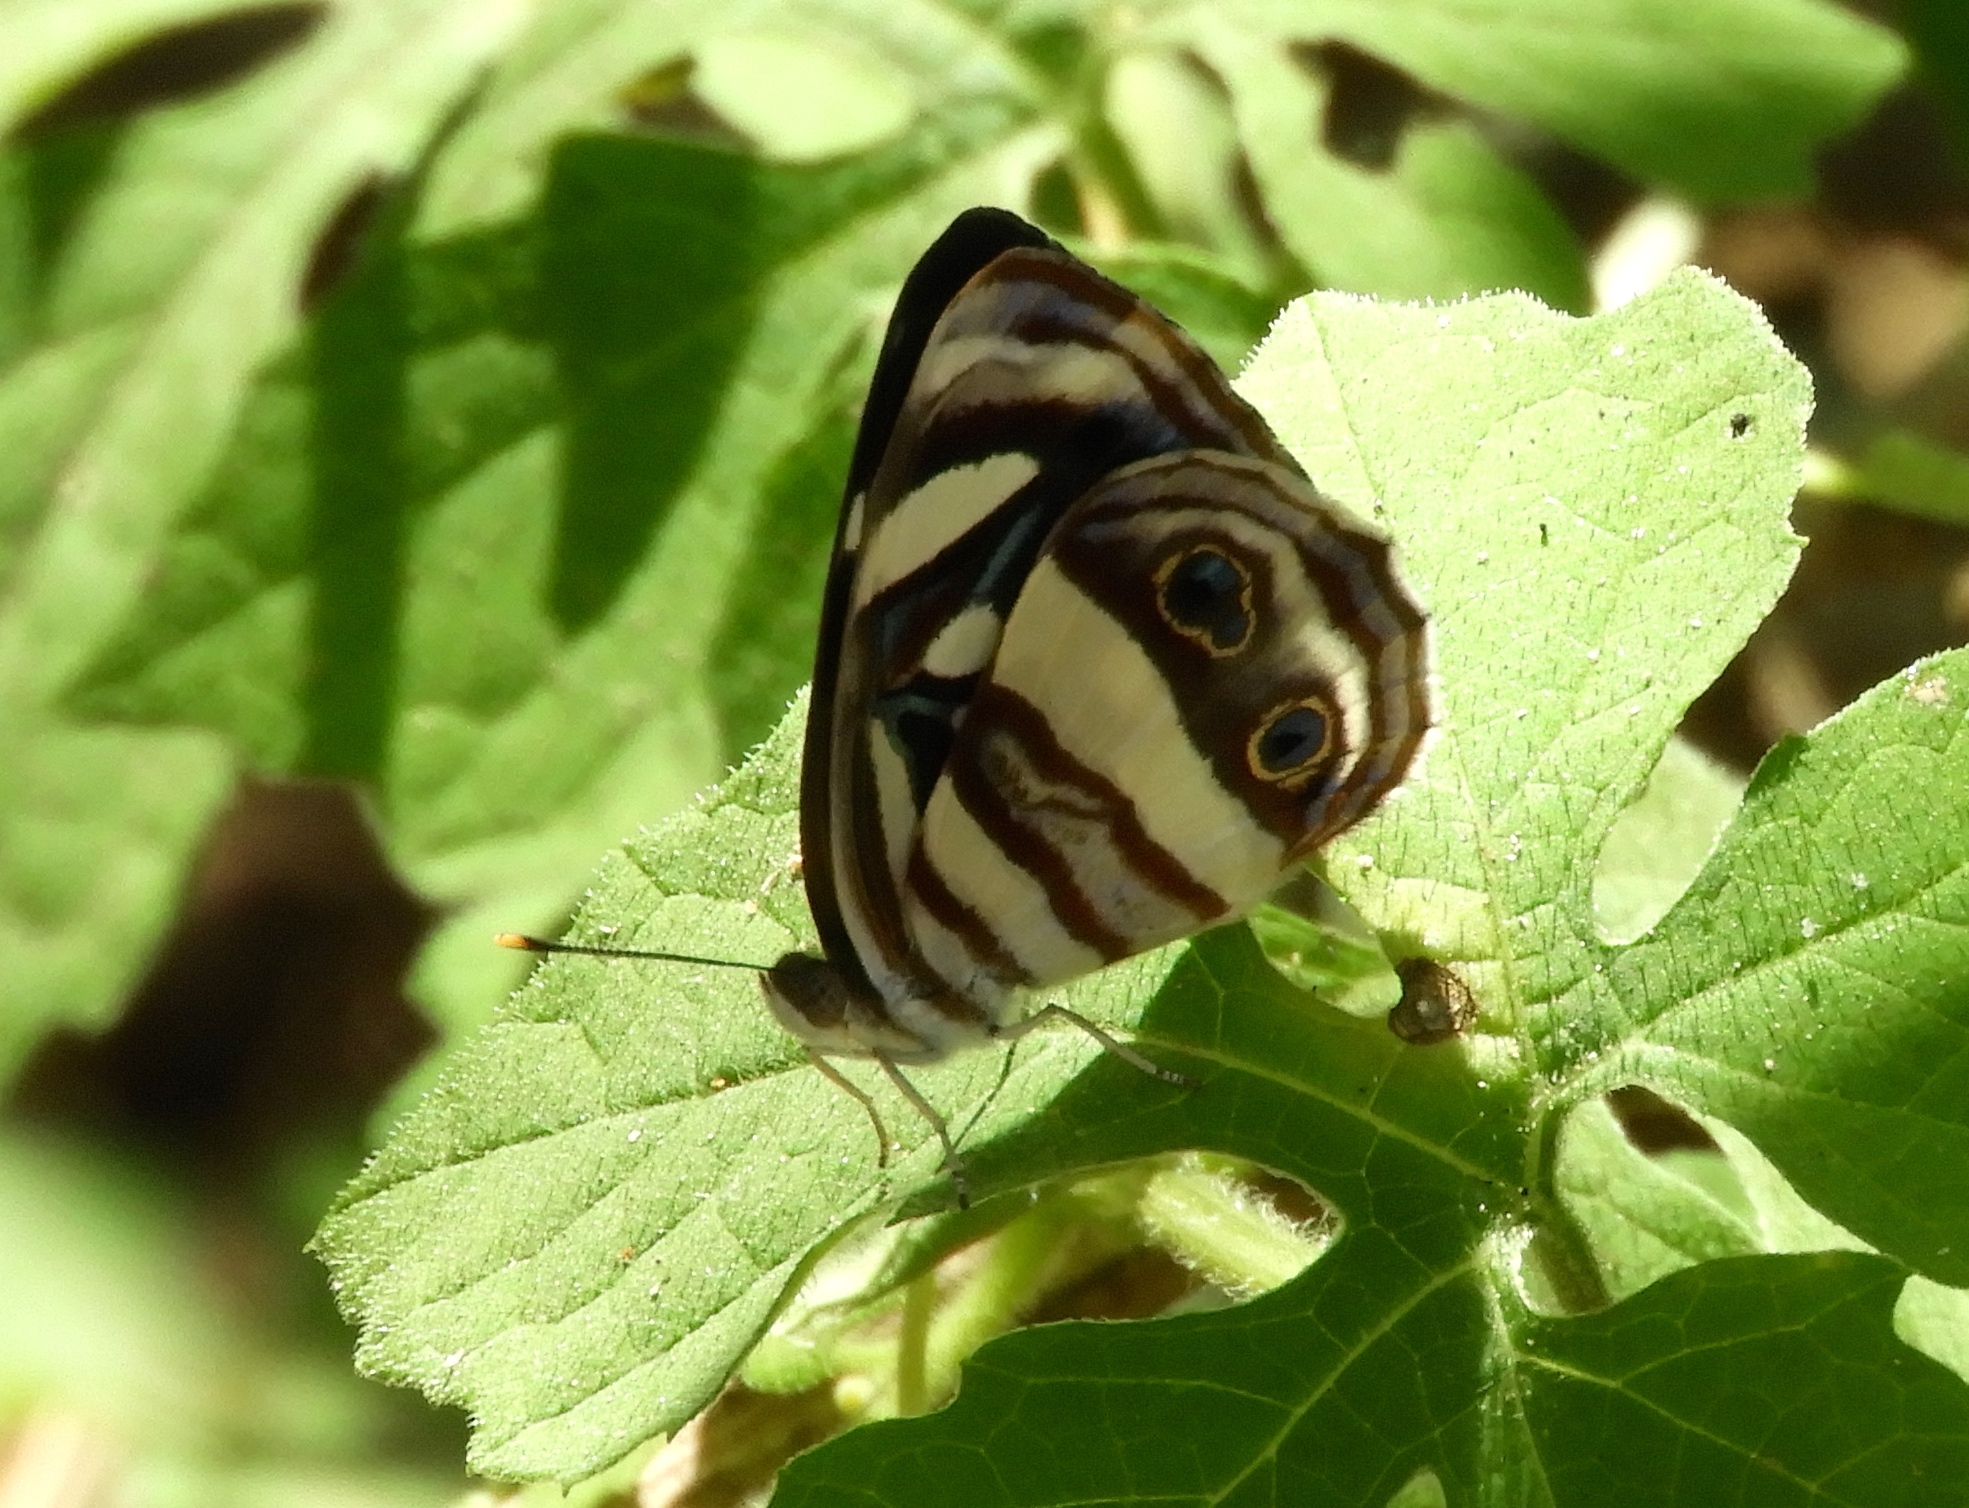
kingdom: Animalia
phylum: Arthropoda
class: Insecta
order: Lepidoptera
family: Nymphalidae
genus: Dynamine
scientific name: Dynamine mylitta
